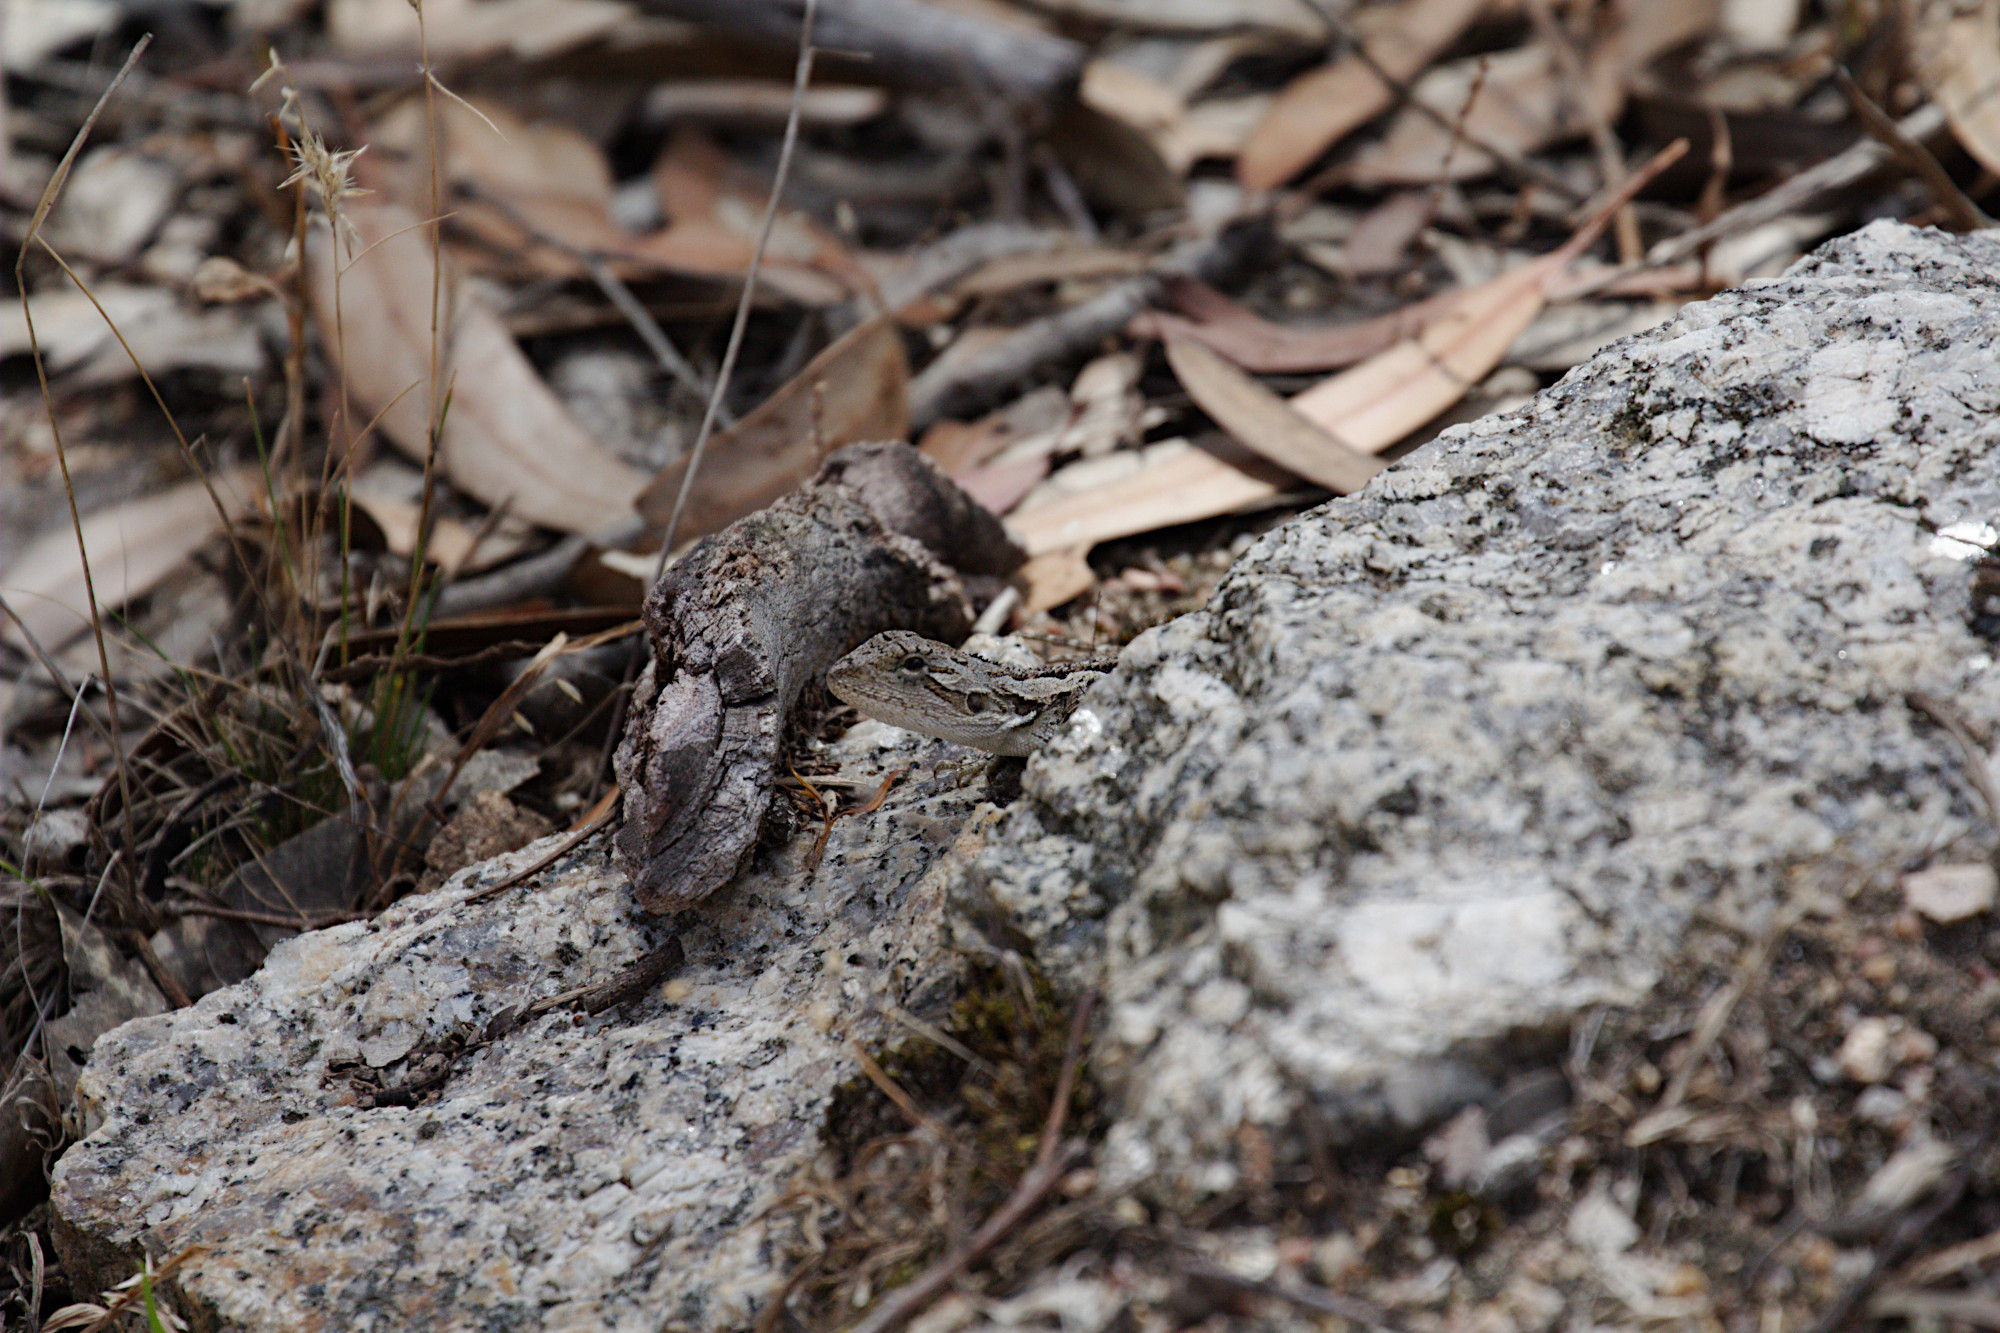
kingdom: Animalia
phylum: Chordata
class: Squamata
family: Agamidae
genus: Amphibolurus
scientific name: Amphibolurus muricatus
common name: Jacky lizard
